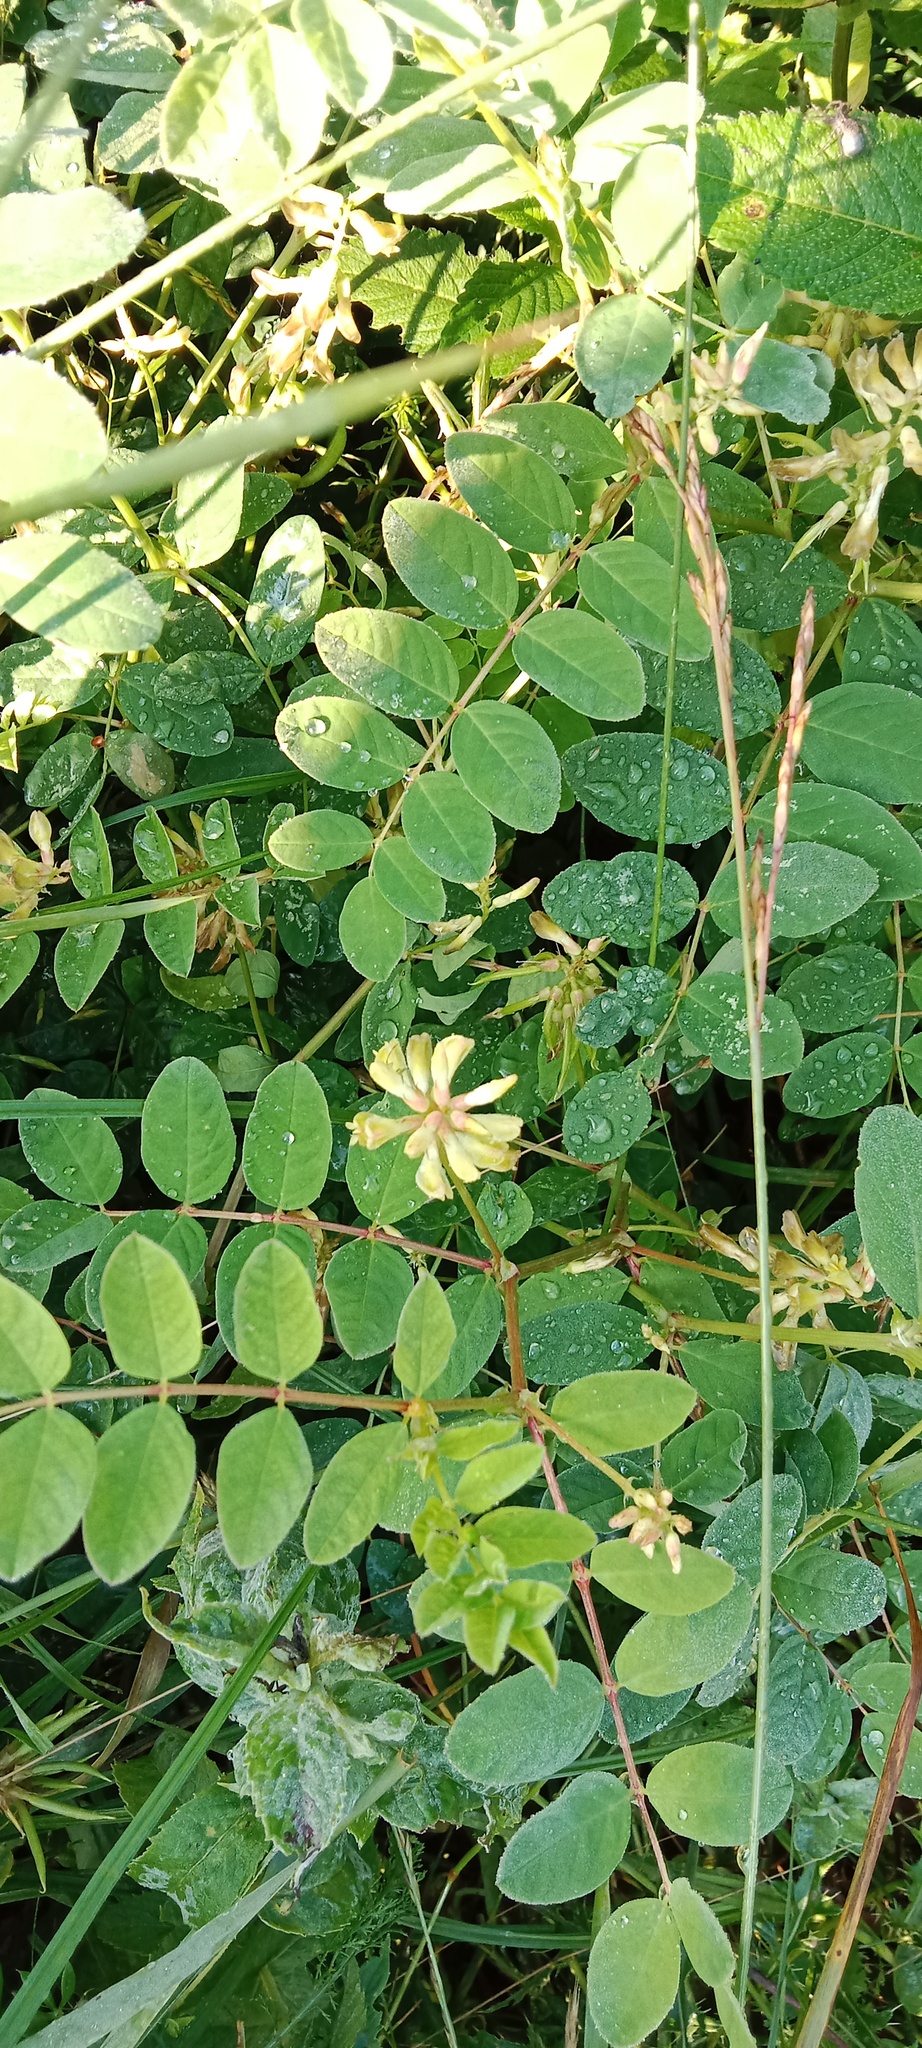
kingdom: Plantae
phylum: Tracheophyta
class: Magnoliopsida
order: Fabales
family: Fabaceae
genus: Astragalus
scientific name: Astragalus glycyphyllos
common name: Wild liquorice
